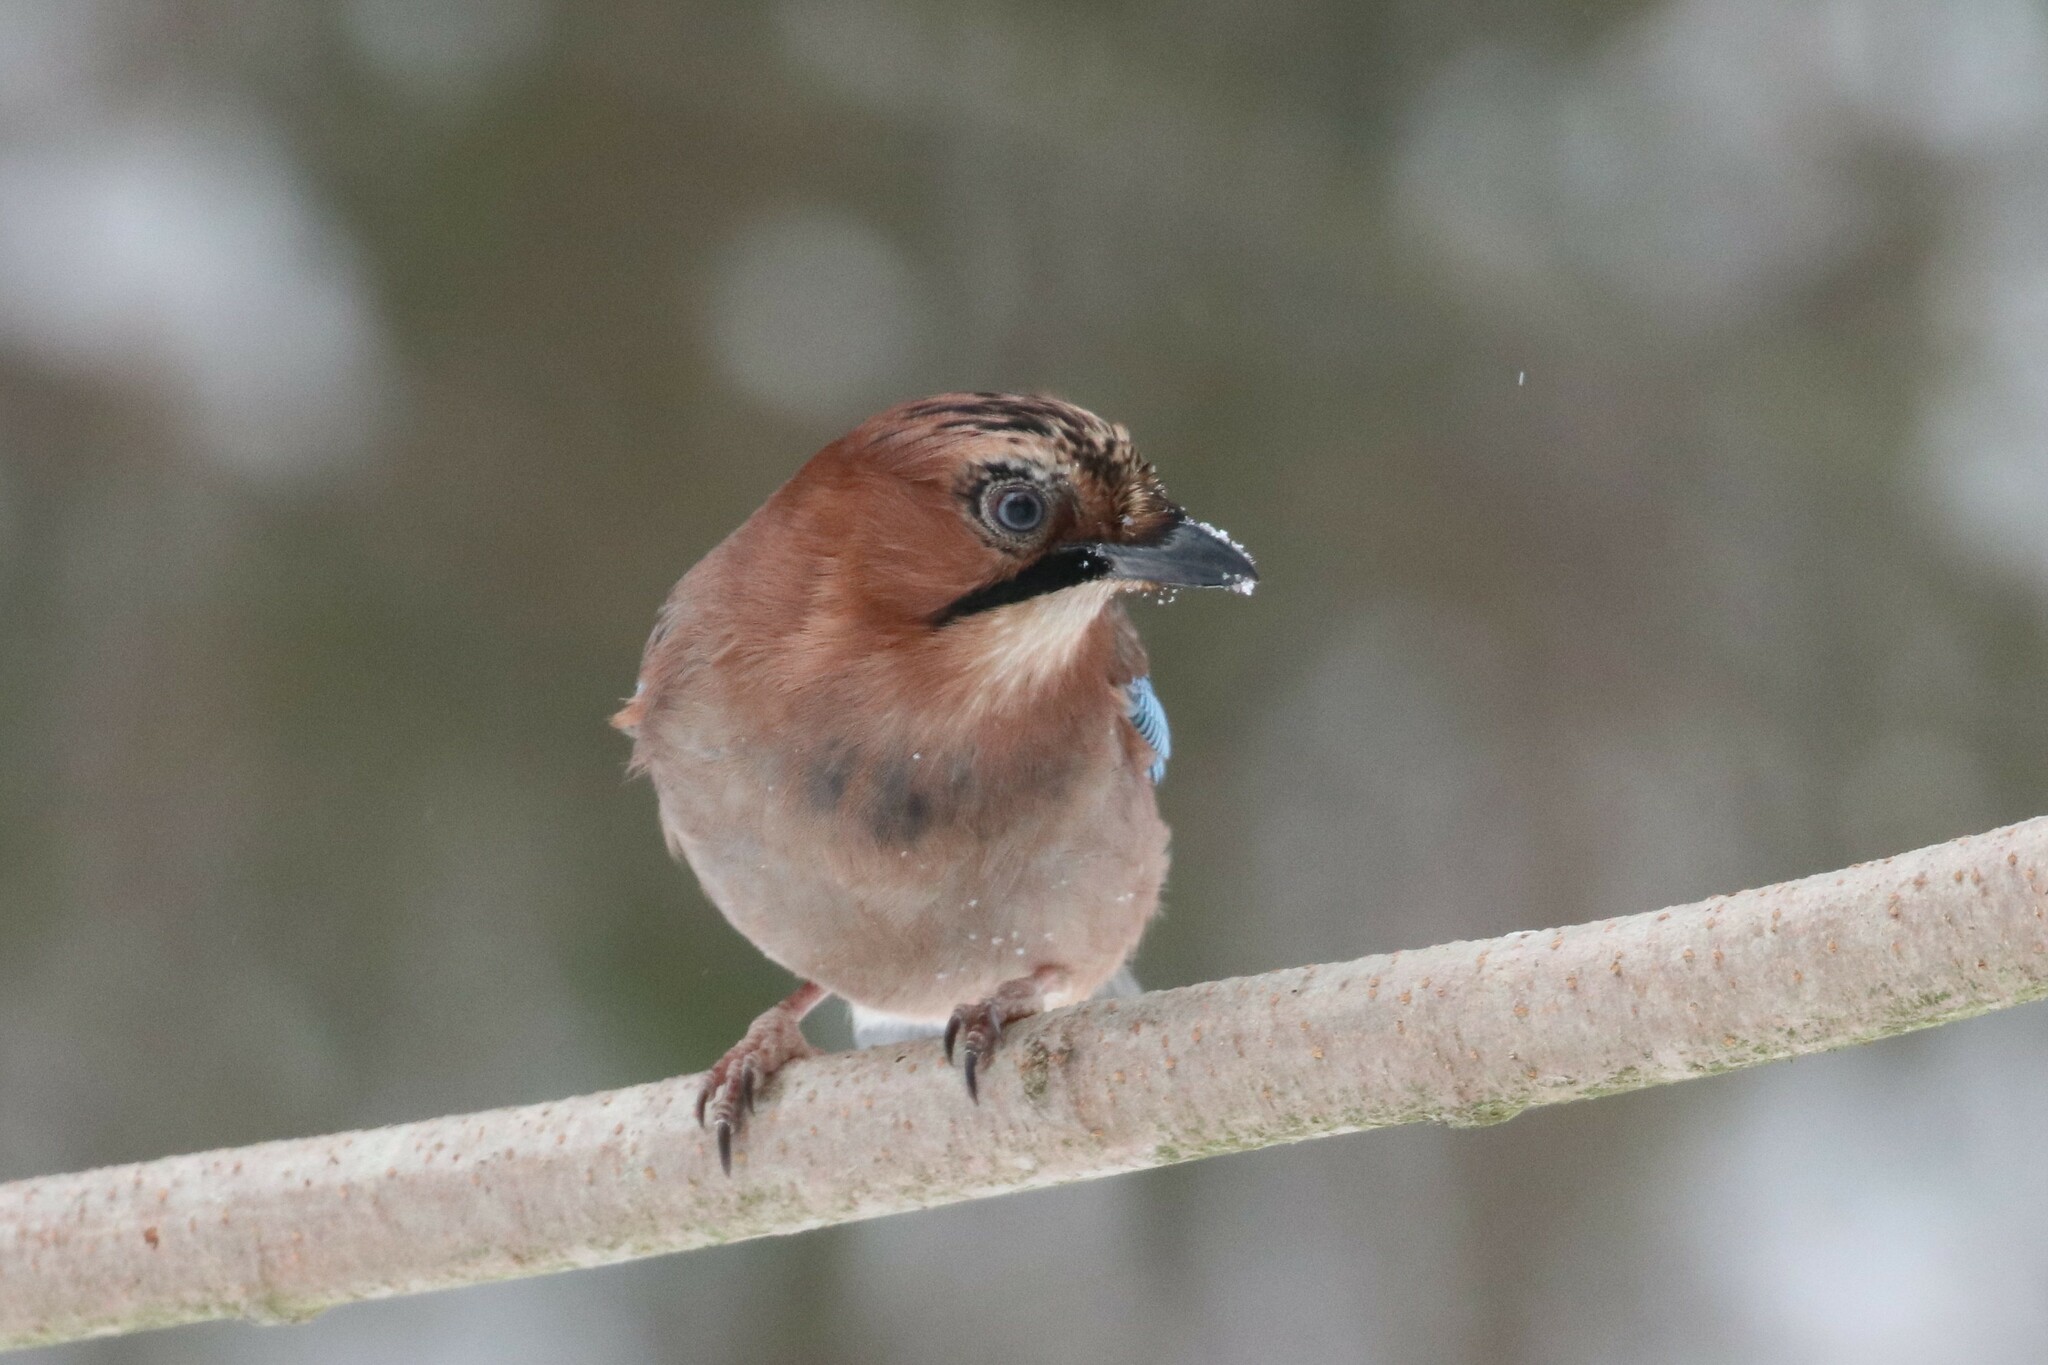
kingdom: Animalia
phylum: Chordata
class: Aves
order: Passeriformes
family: Corvidae
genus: Garrulus
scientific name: Garrulus glandarius
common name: Eurasian jay
